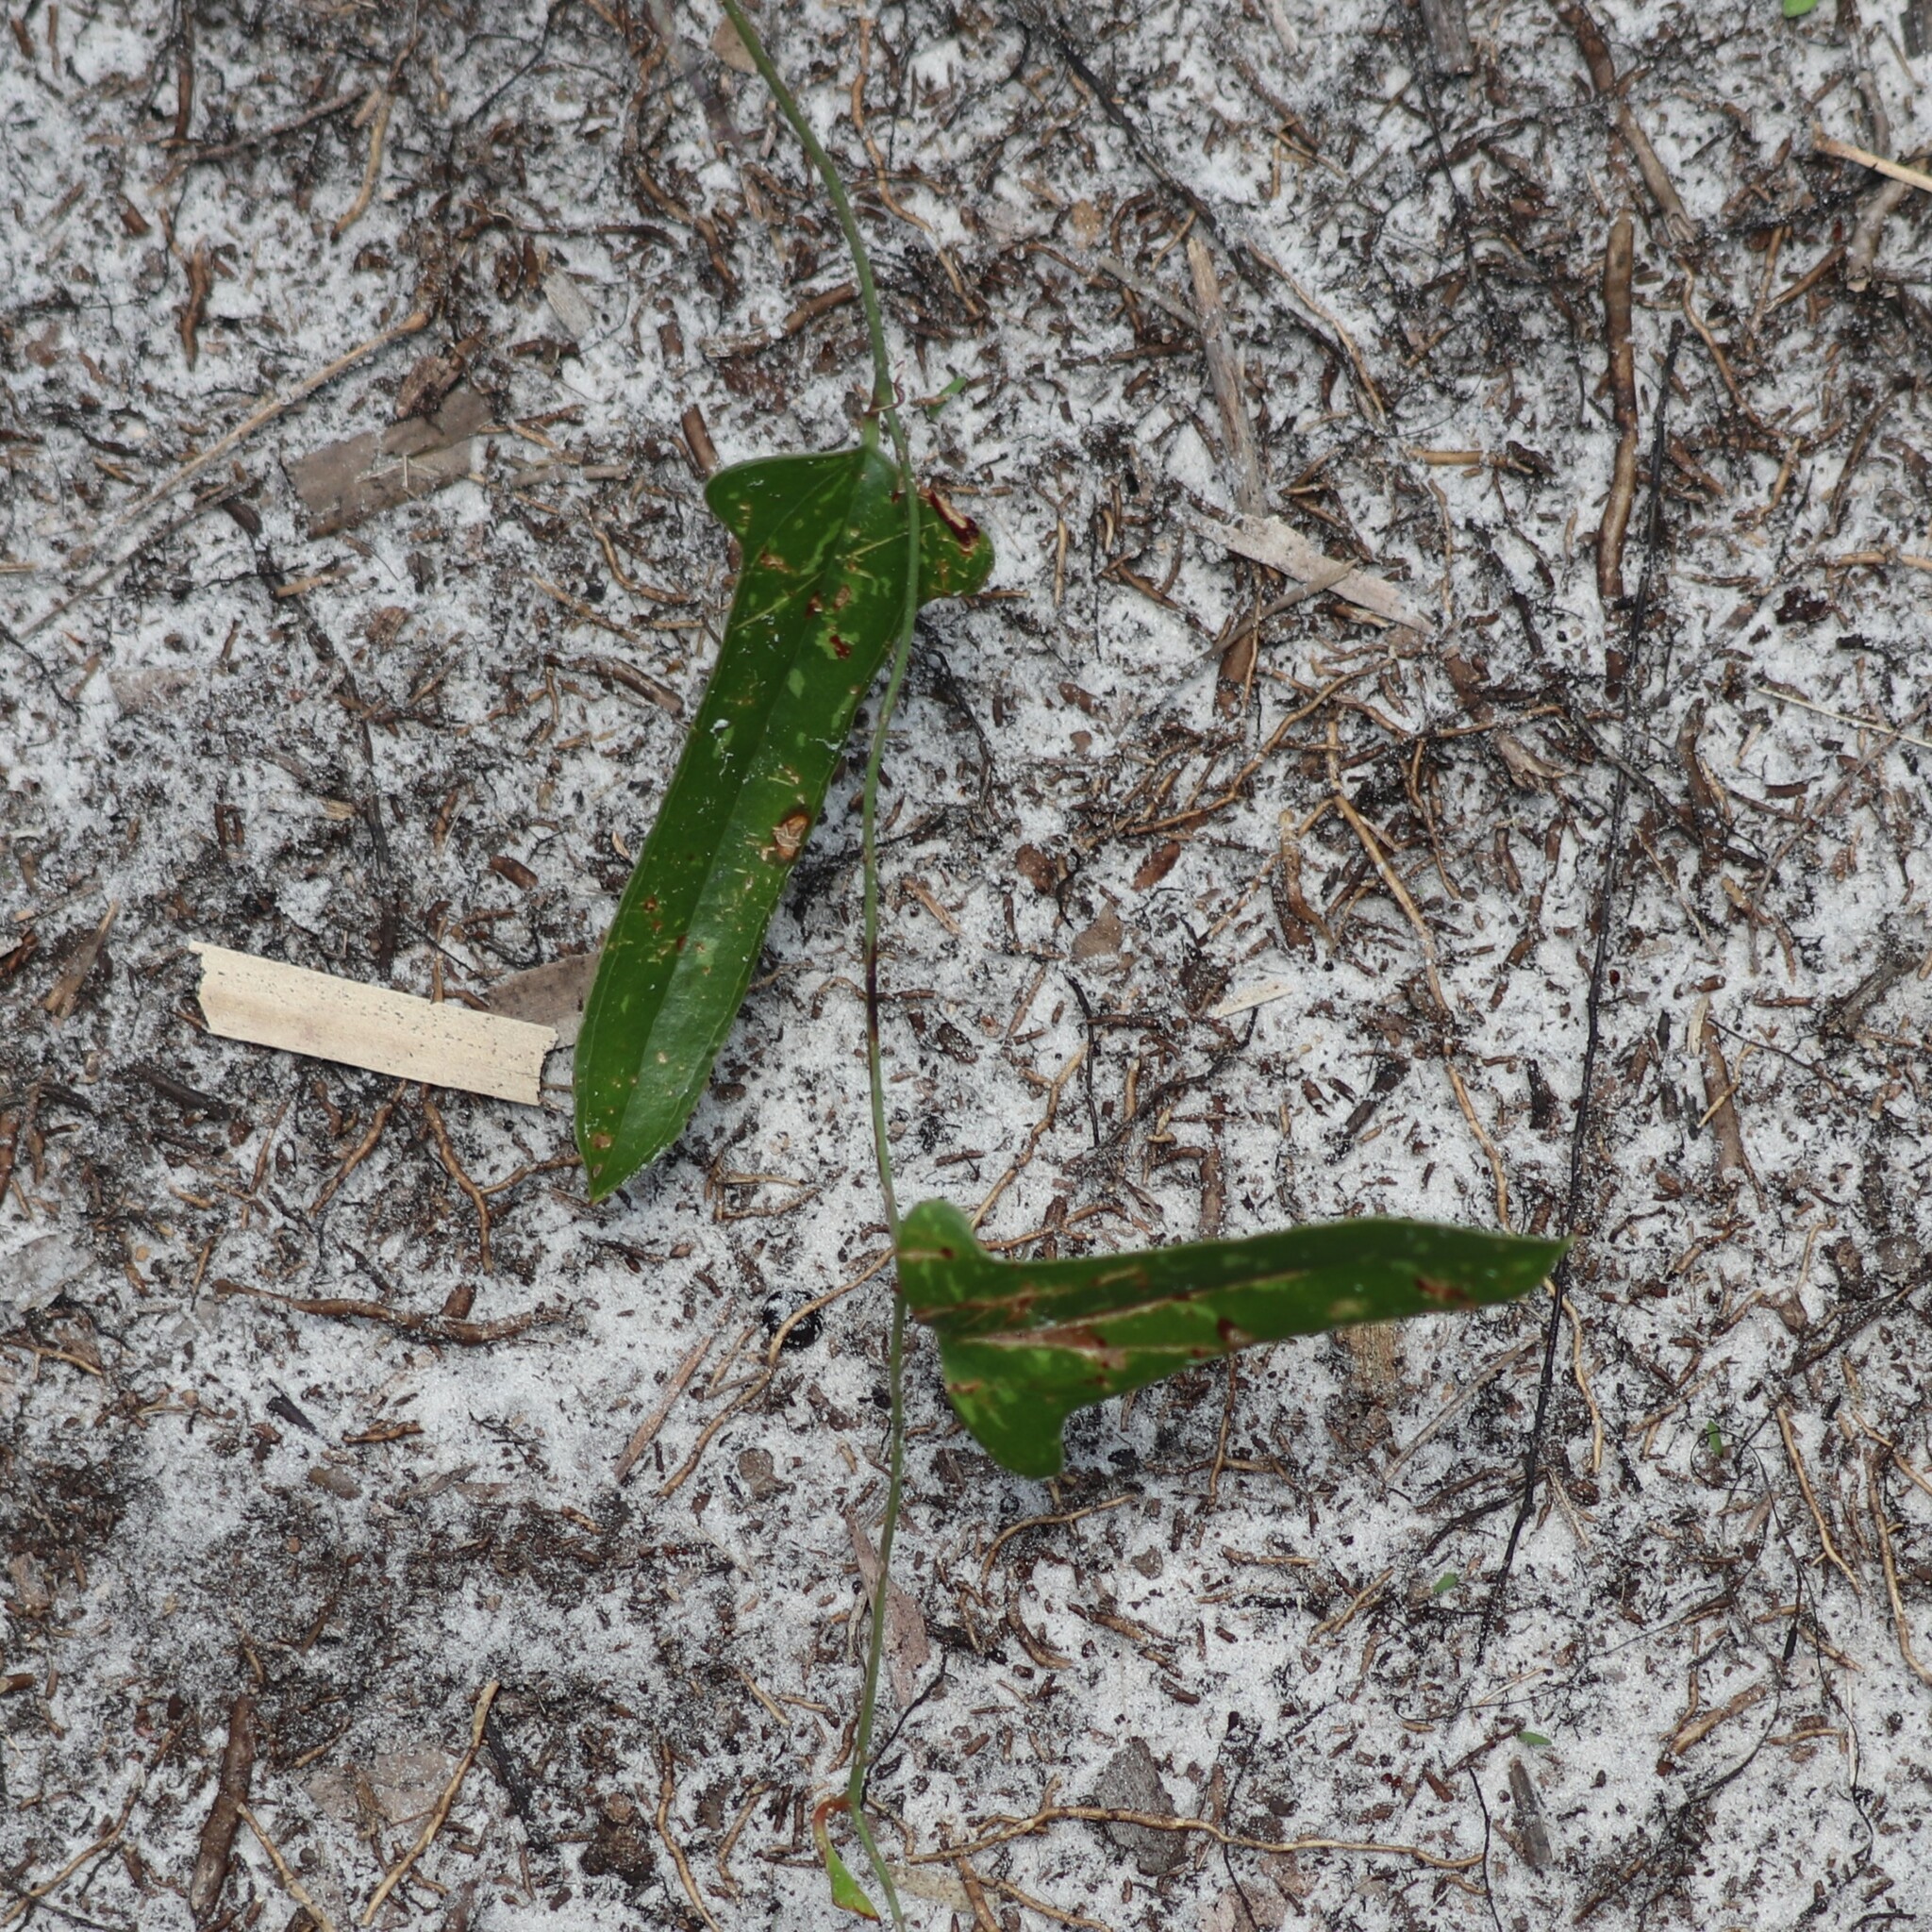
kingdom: Plantae
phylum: Tracheophyta
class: Liliopsida
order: Liliales
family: Smilacaceae
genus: Smilax
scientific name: Smilax bona-nox
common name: Catbrier
